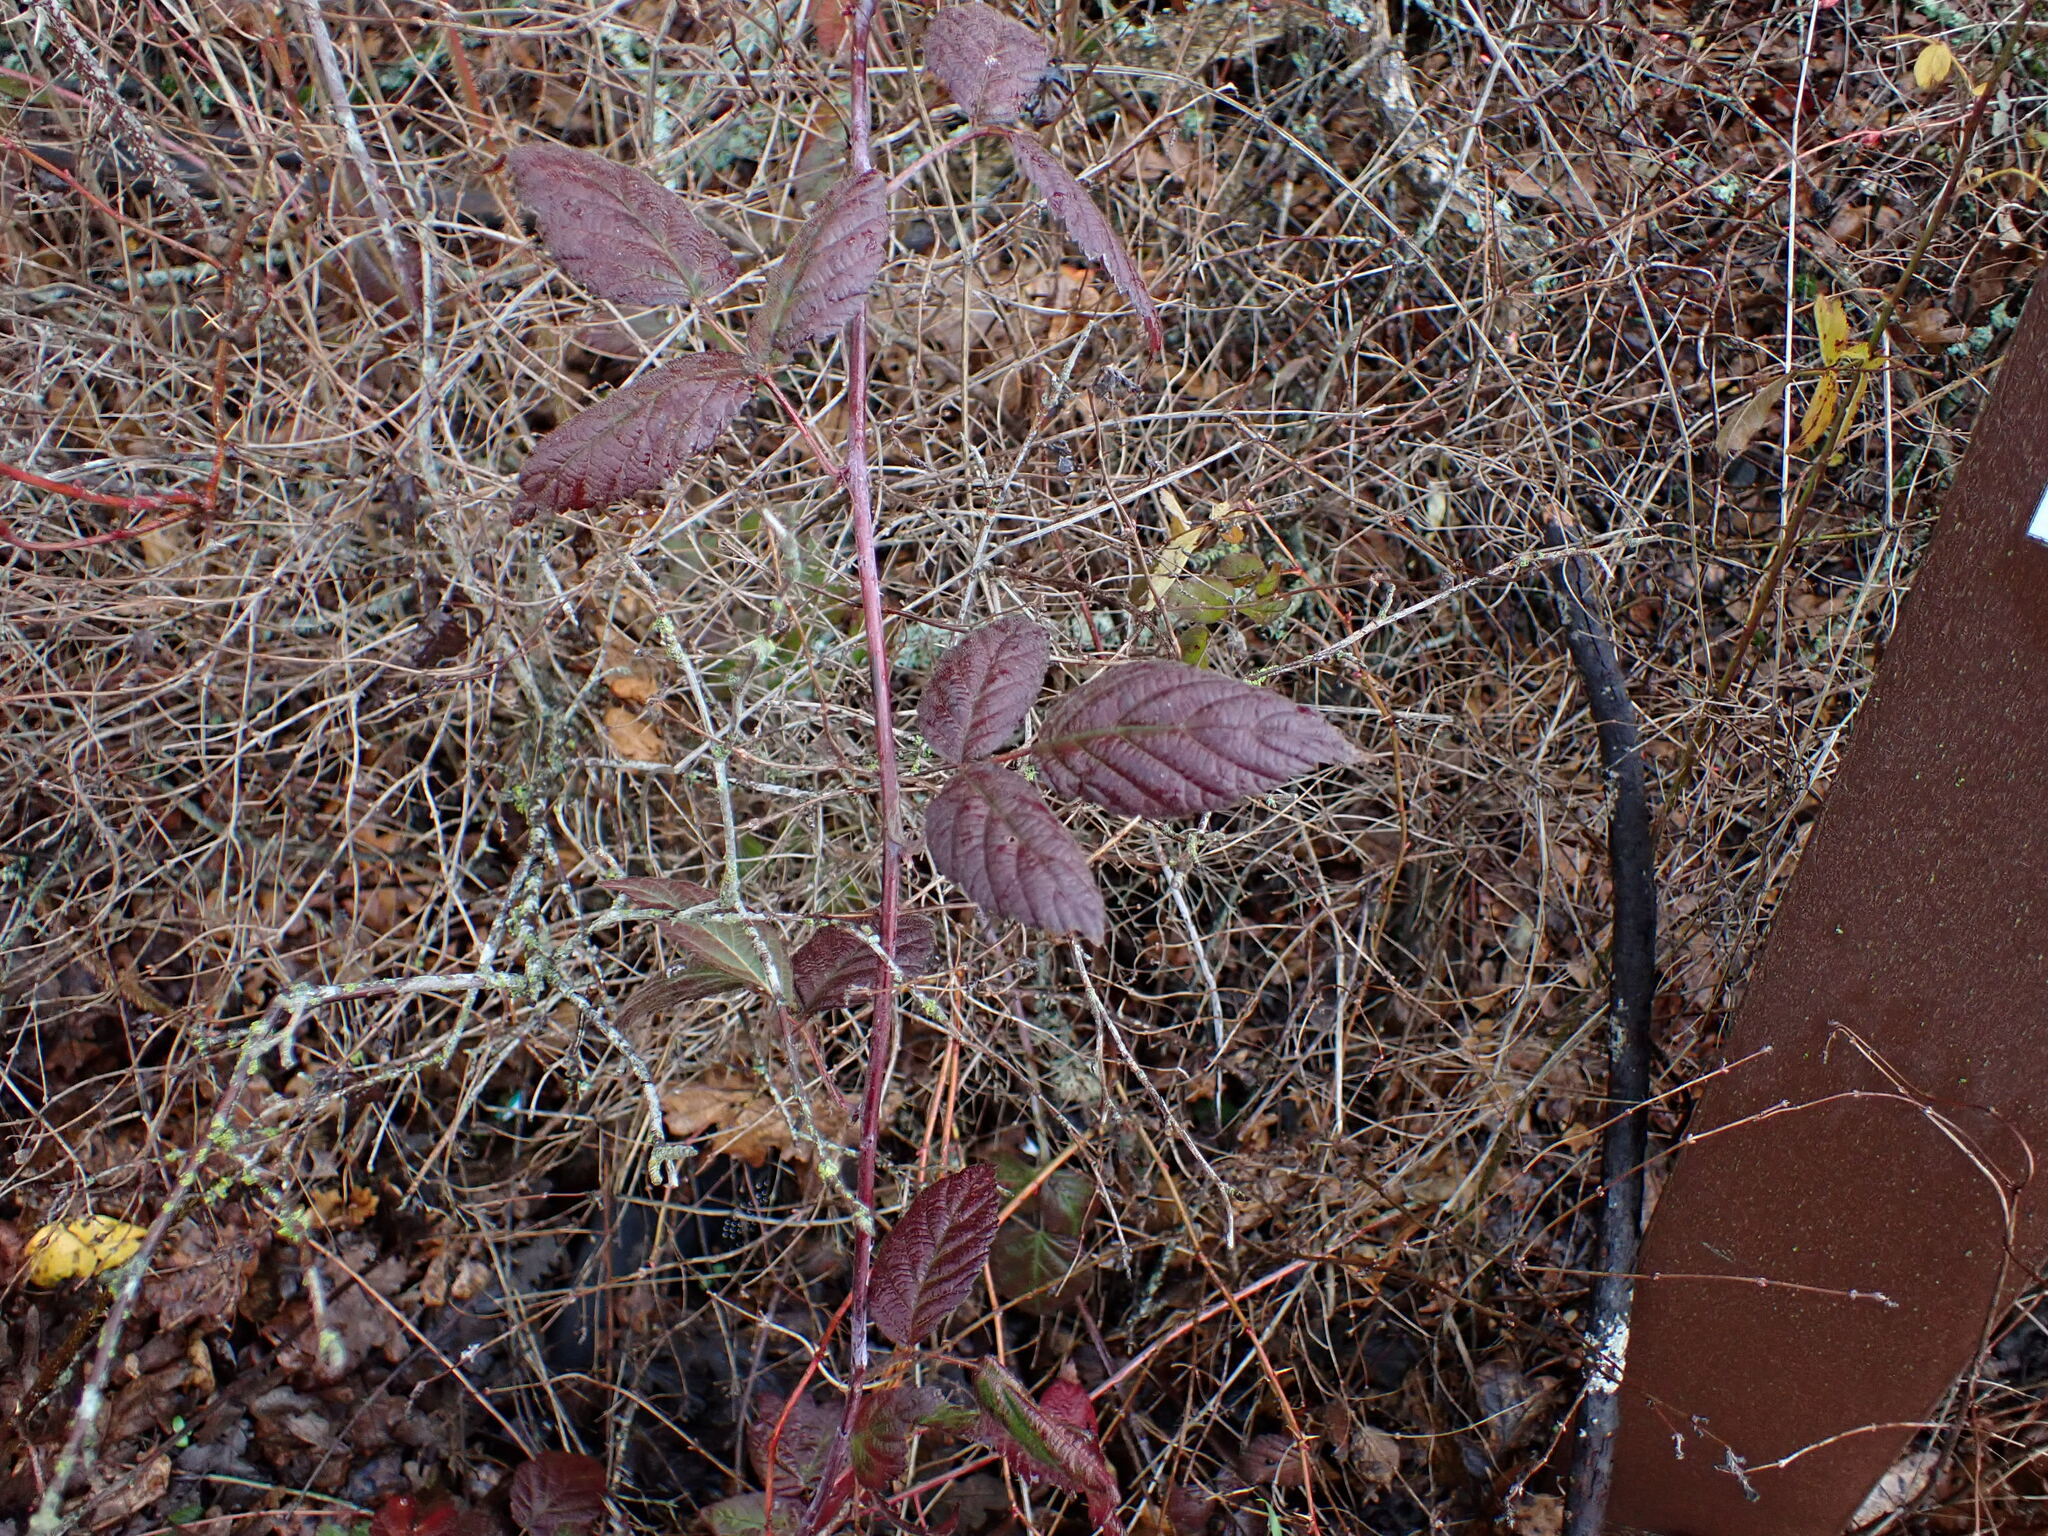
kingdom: Plantae
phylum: Tracheophyta
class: Magnoliopsida
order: Rosales
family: Rosaceae
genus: Rubus
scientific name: Rubus ursinus
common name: Pacific blackberry
